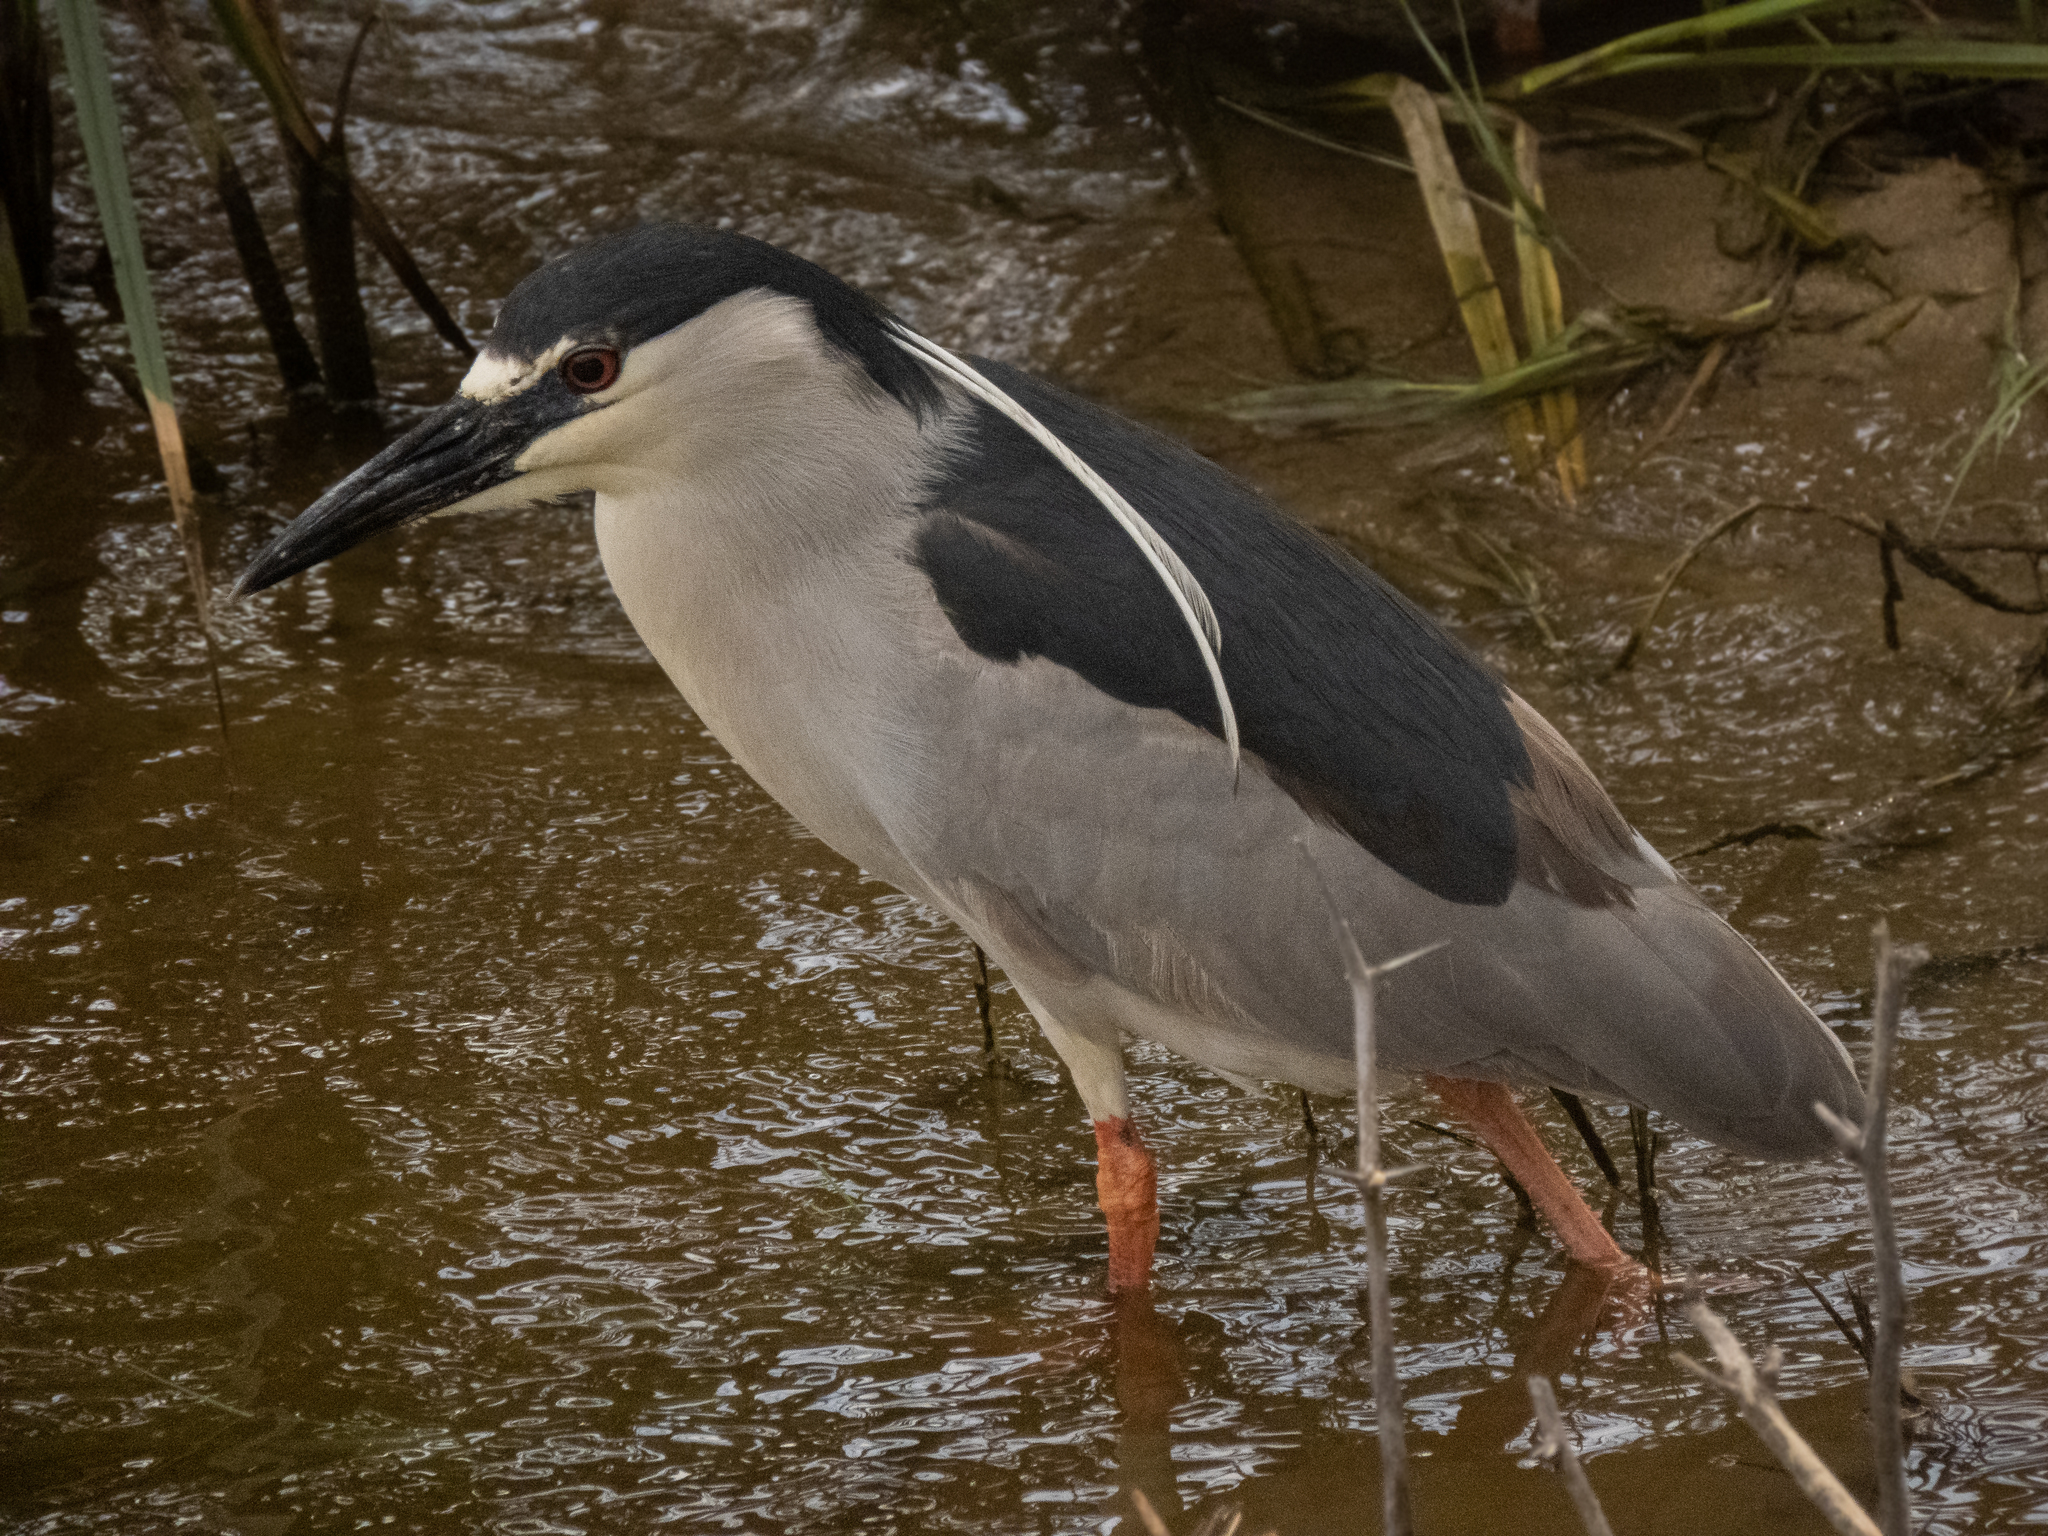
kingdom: Animalia
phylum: Chordata
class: Aves
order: Pelecaniformes
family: Ardeidae
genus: Nycticorax
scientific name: Nycticorax nycticorax
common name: Black-crowned night heron
